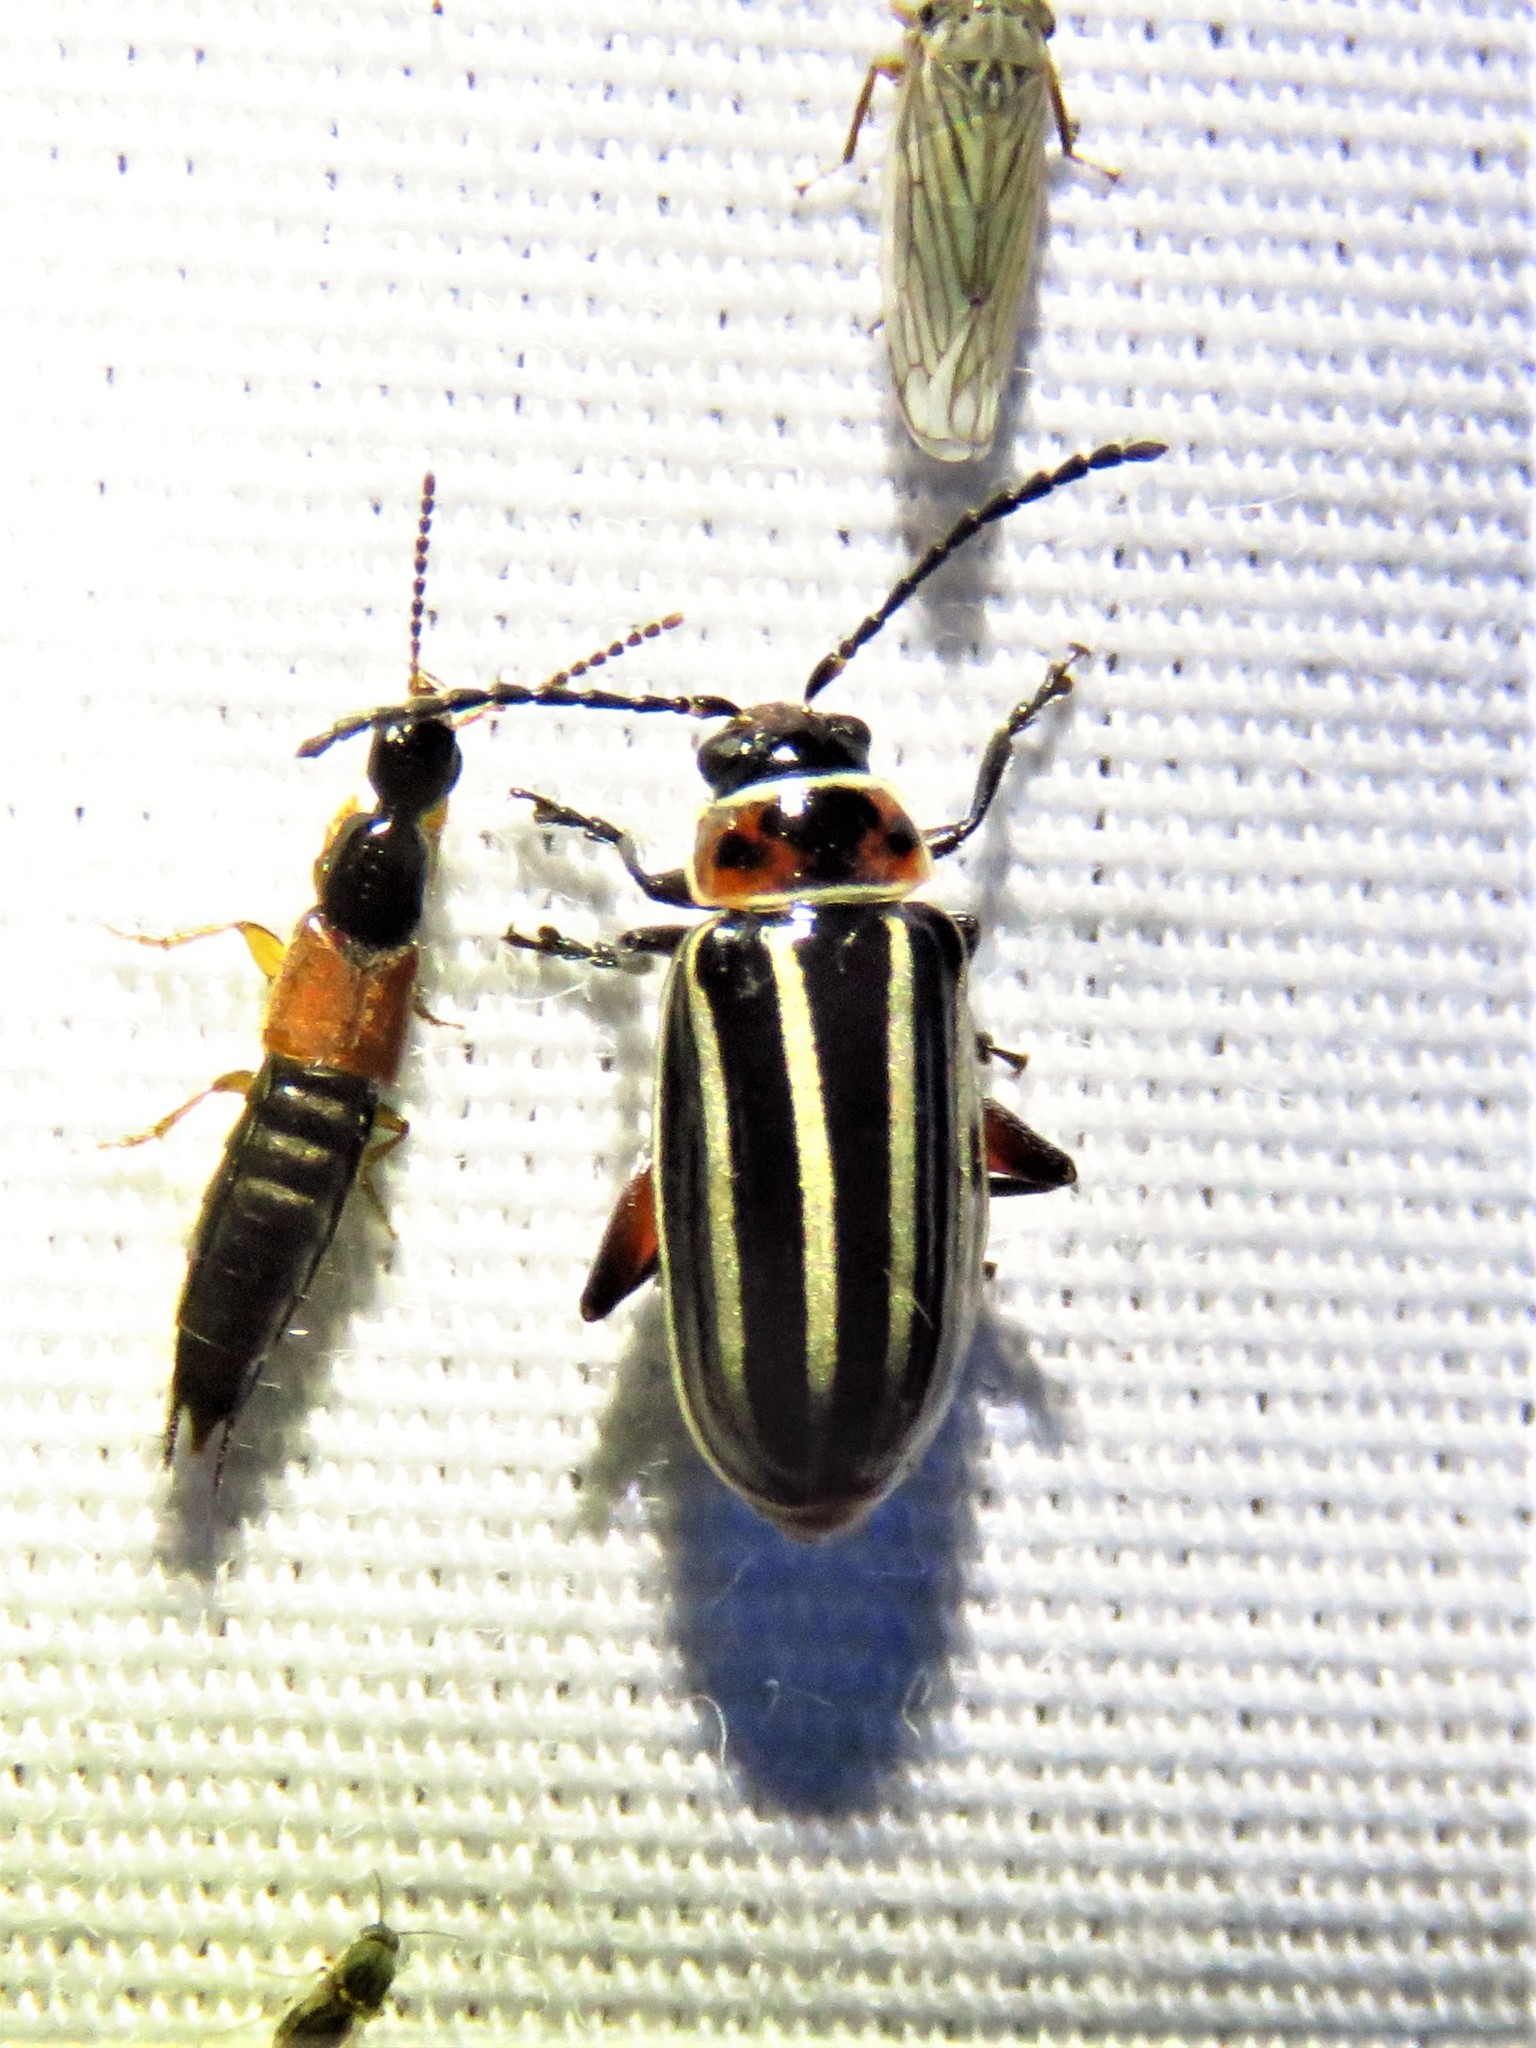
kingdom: Animalia
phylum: Arthropoda
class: Insecta
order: Coleoptera
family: Chrysomelidae
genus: Disonycha
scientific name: Disonycha procera
